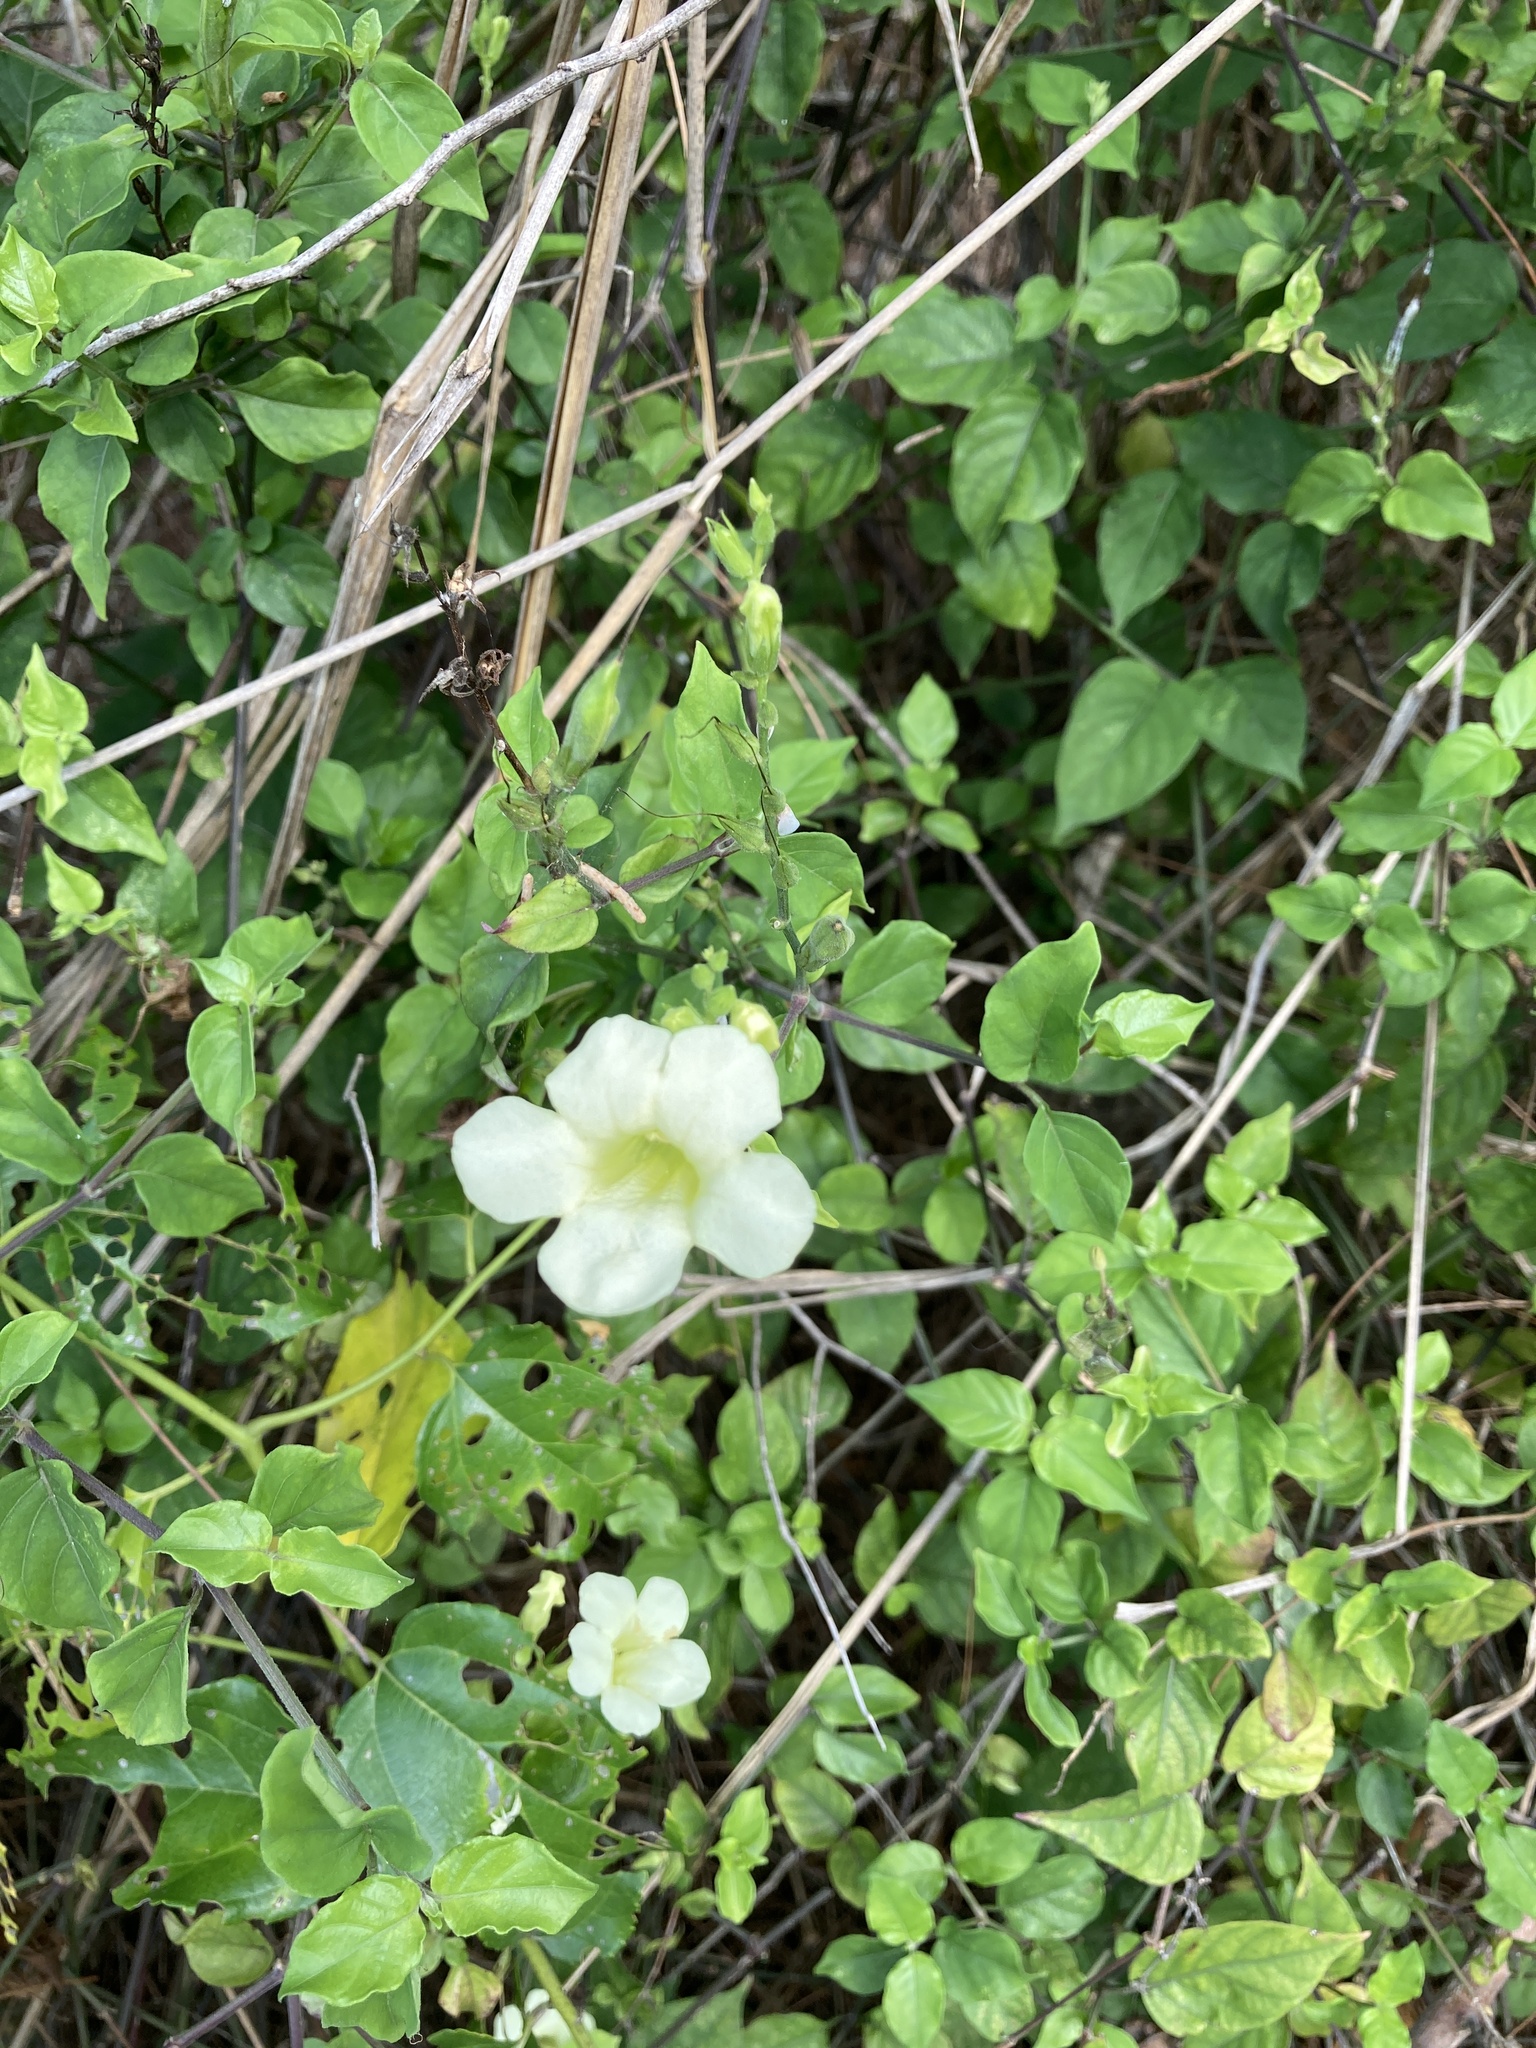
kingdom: Plantae
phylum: Tracheophyta
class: Magnoliopsida
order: Lamiales
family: Acanthaceae
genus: Asystasia
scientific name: Asystasia gangetica
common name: Chinese violet
